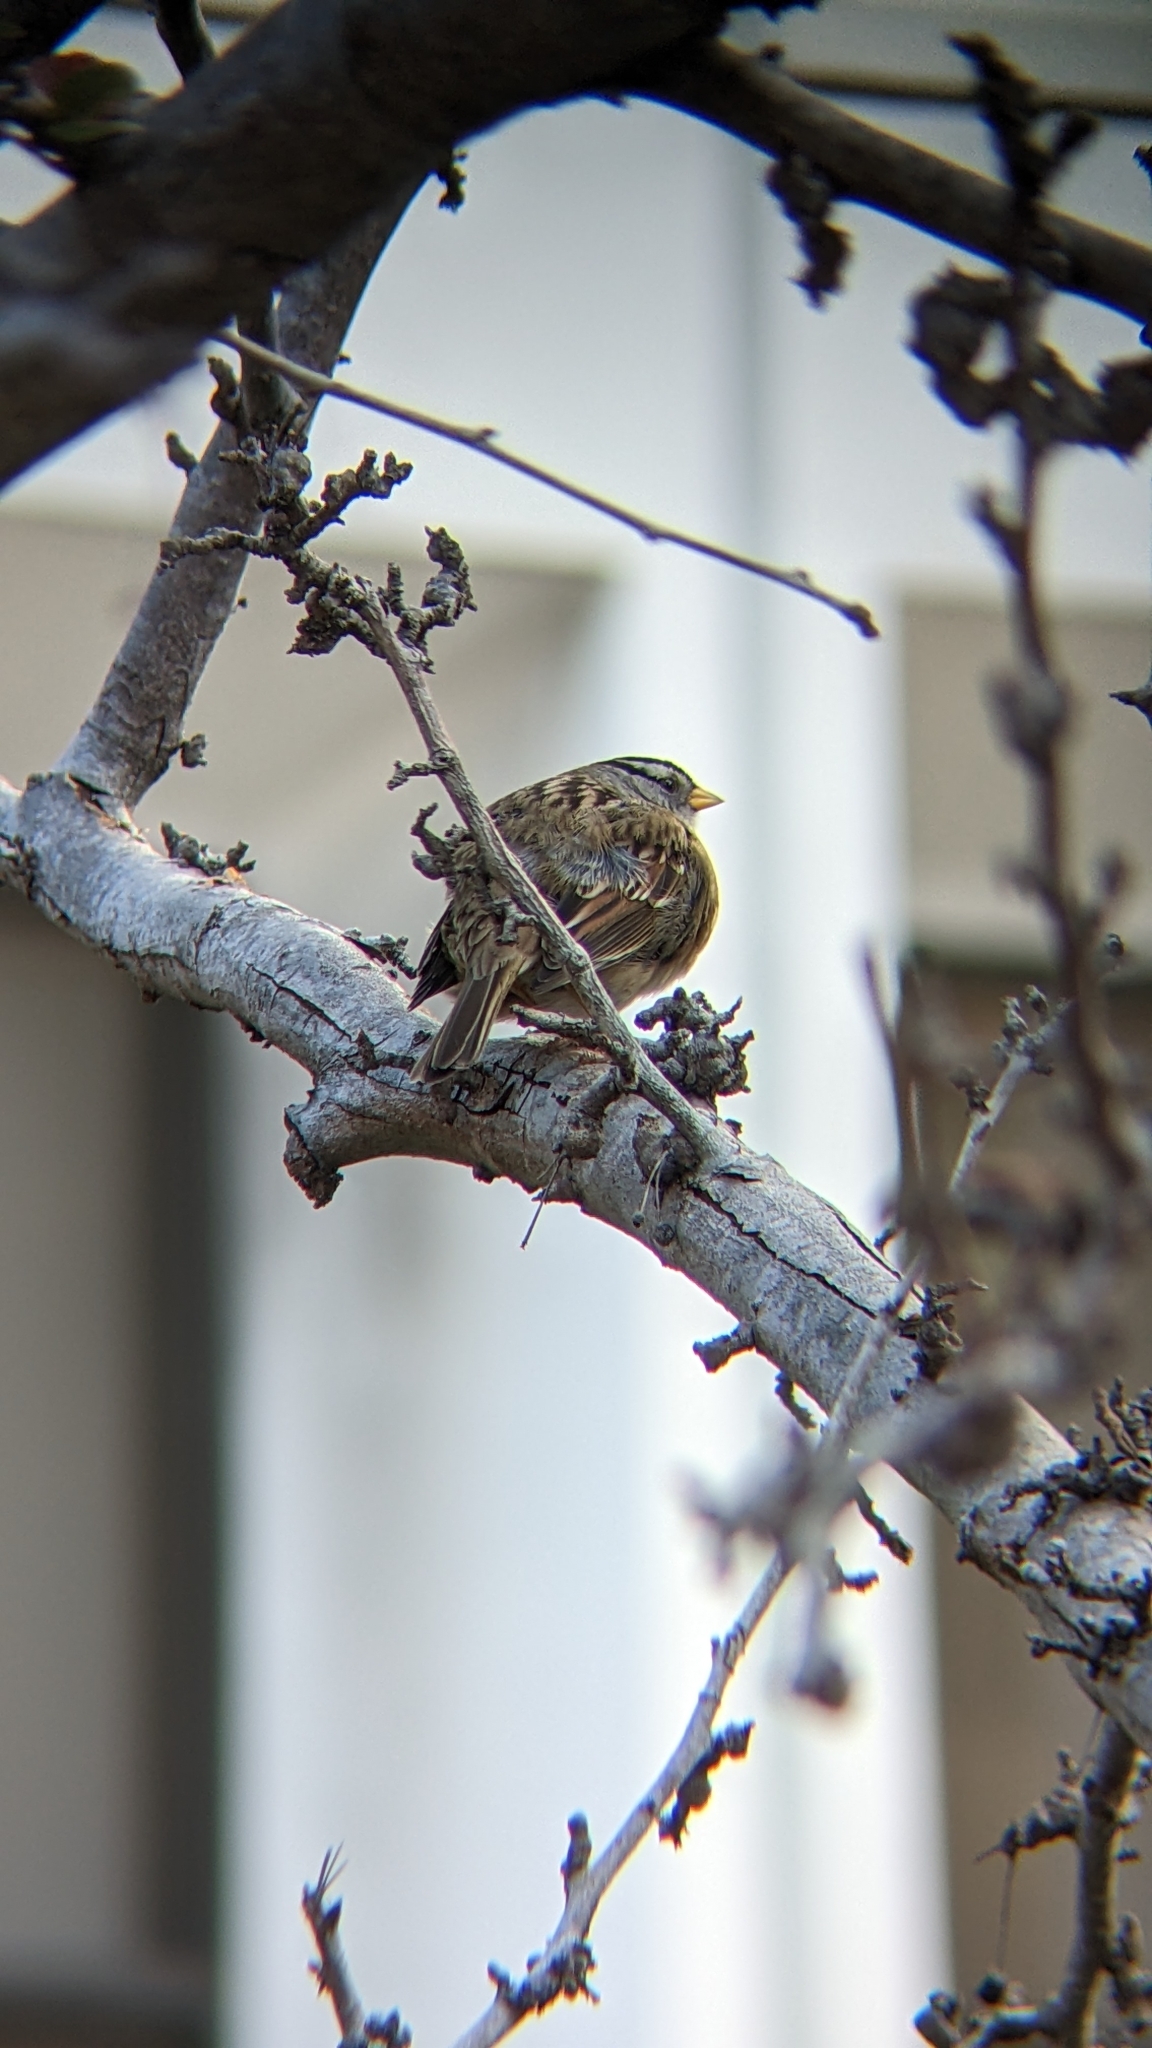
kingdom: Animalia
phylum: Chordata
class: Aves
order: Passeriformes
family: Passerellidae
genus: Zonotrichia
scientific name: Zonotrichia leucophrys
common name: White-crowned sparrow
